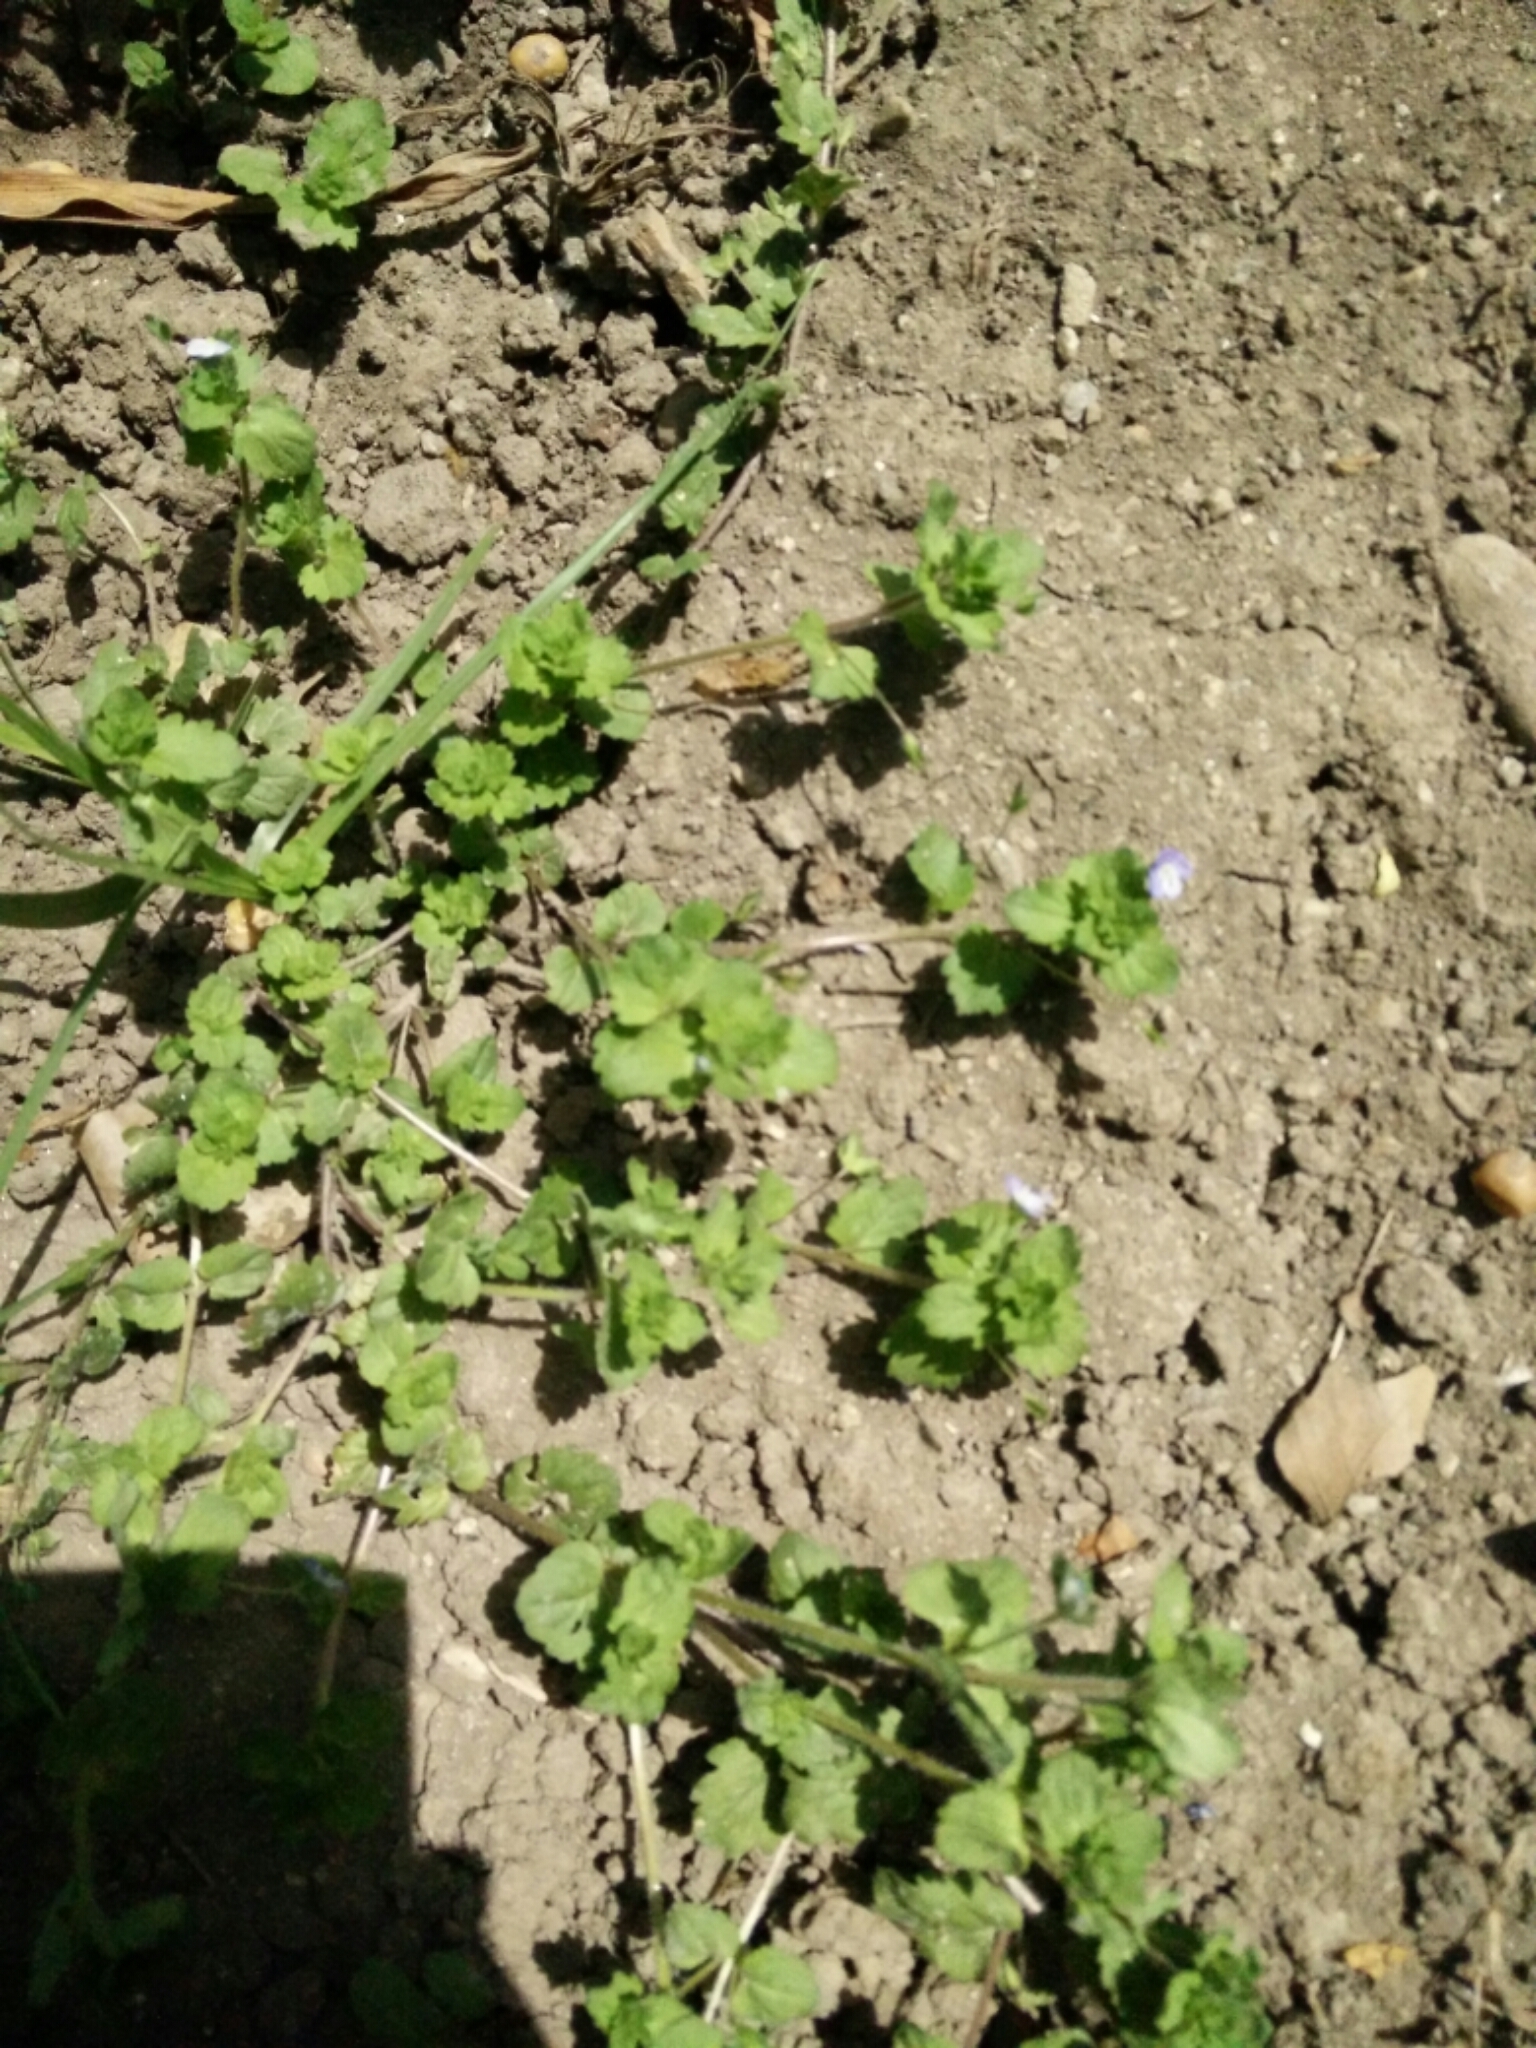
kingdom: Plantae
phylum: Tracheophyta
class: Magnoliopsida
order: Lamiales
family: Plantaginaceae
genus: Veronica
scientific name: Veronica persica
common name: Common field-speedwell
